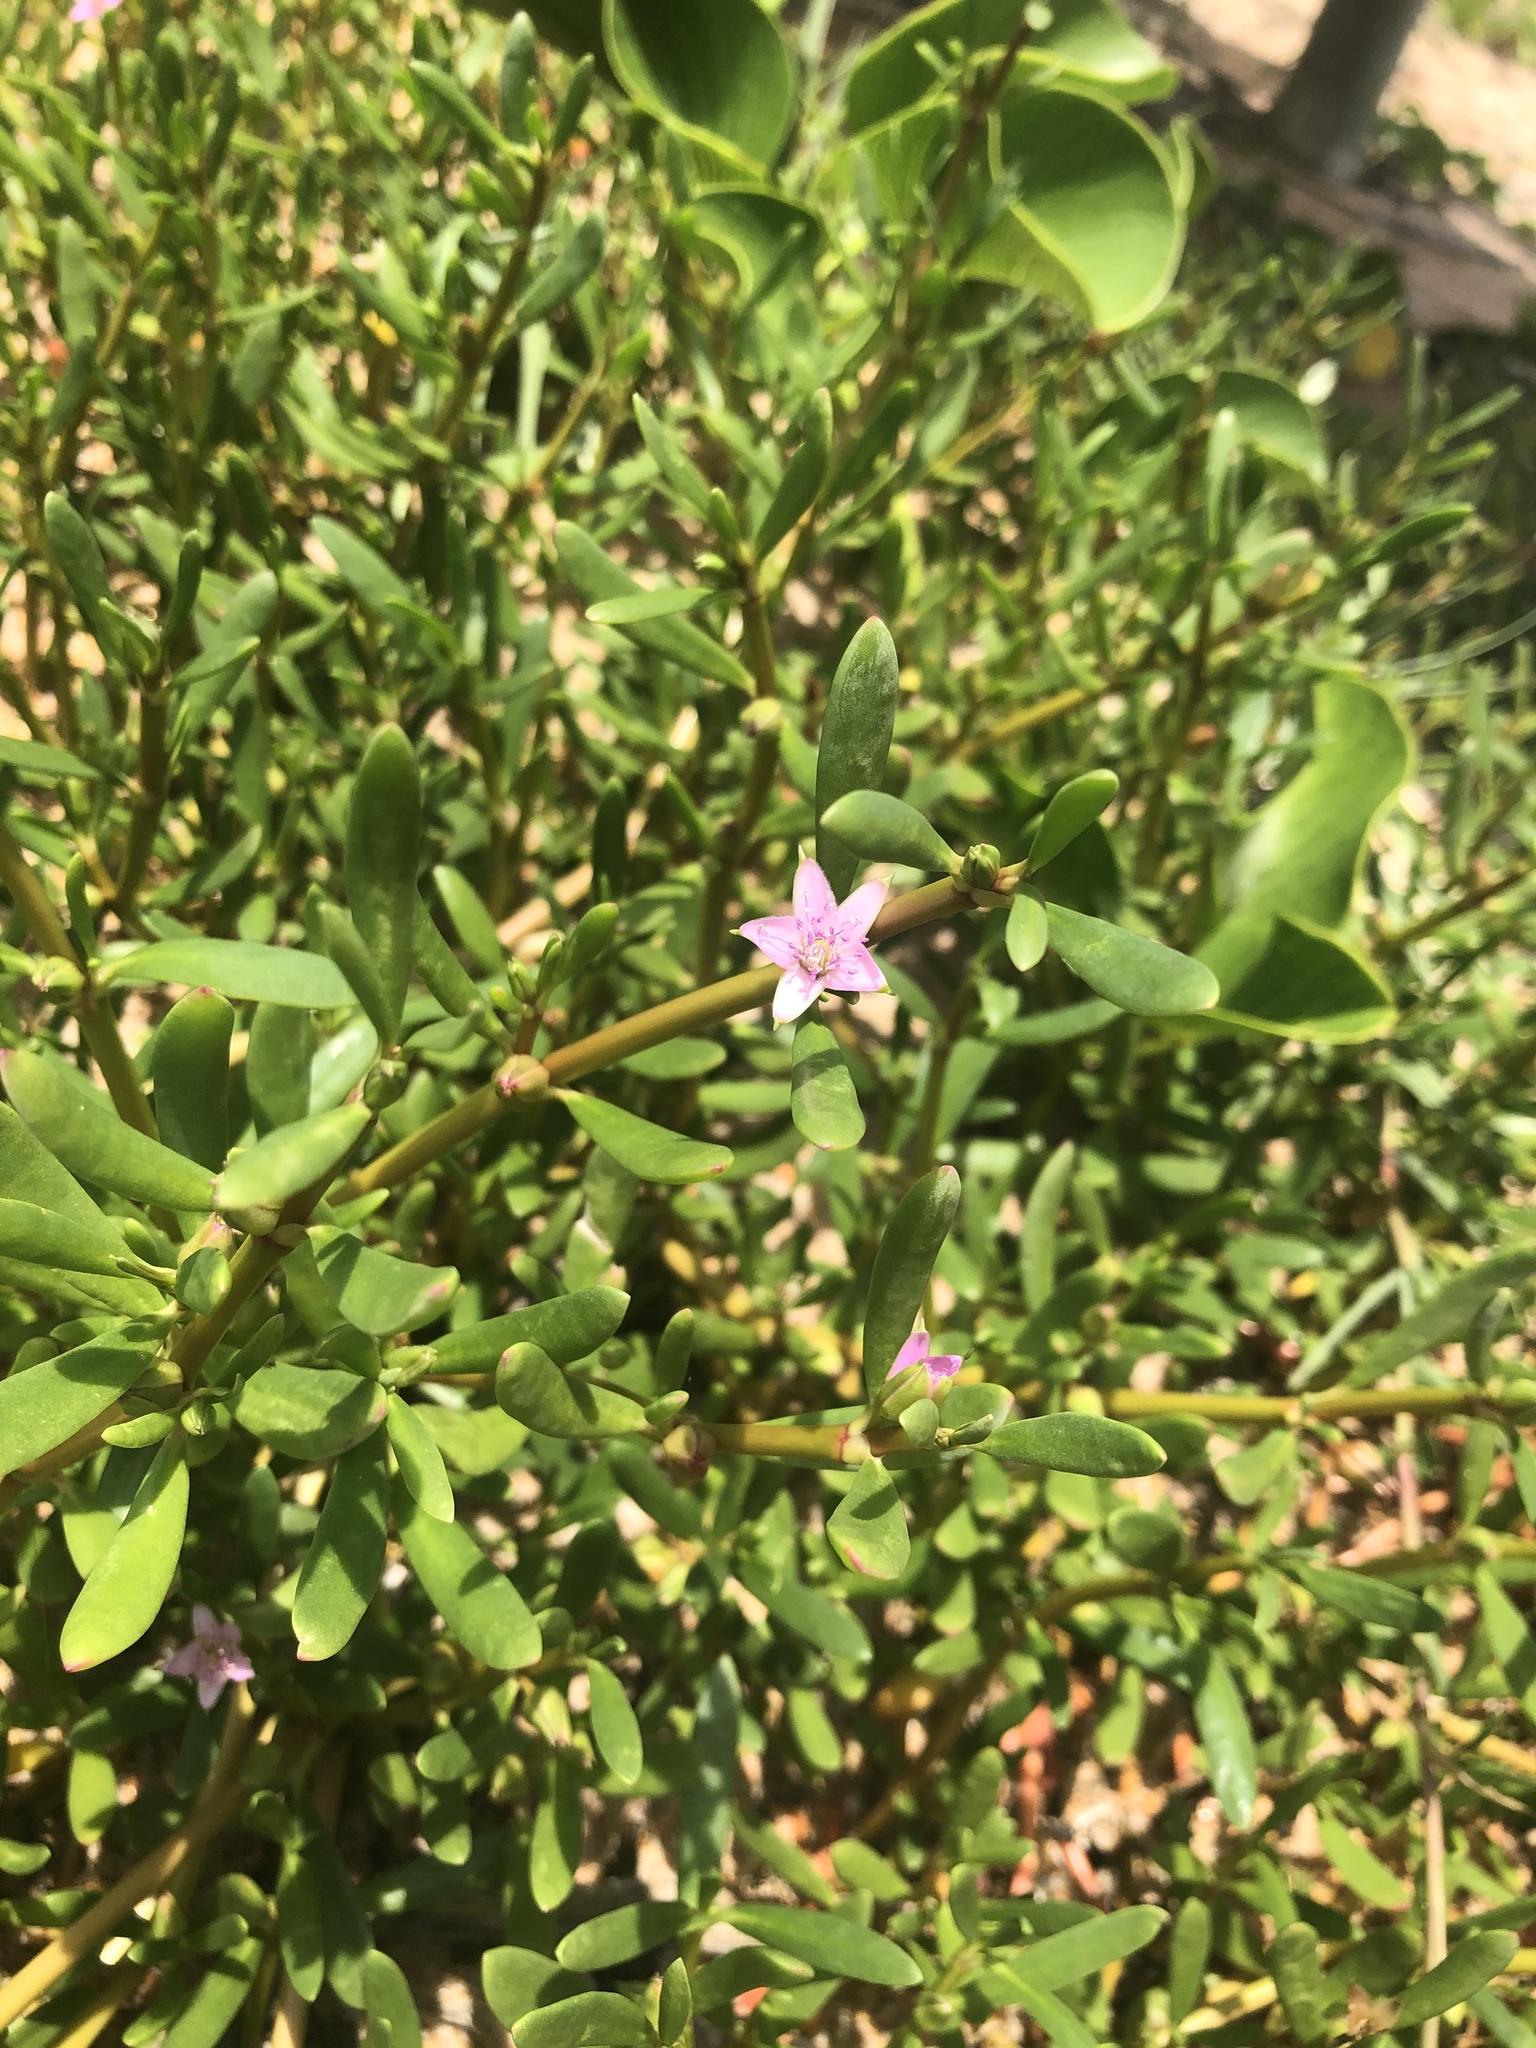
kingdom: Plantae
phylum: Tracheophyta
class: Magnoliopsida
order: Caryophyllales
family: Aizoaceae
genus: Sesuvium
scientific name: Sesuvium portulacastrum
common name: Sea-purslane
